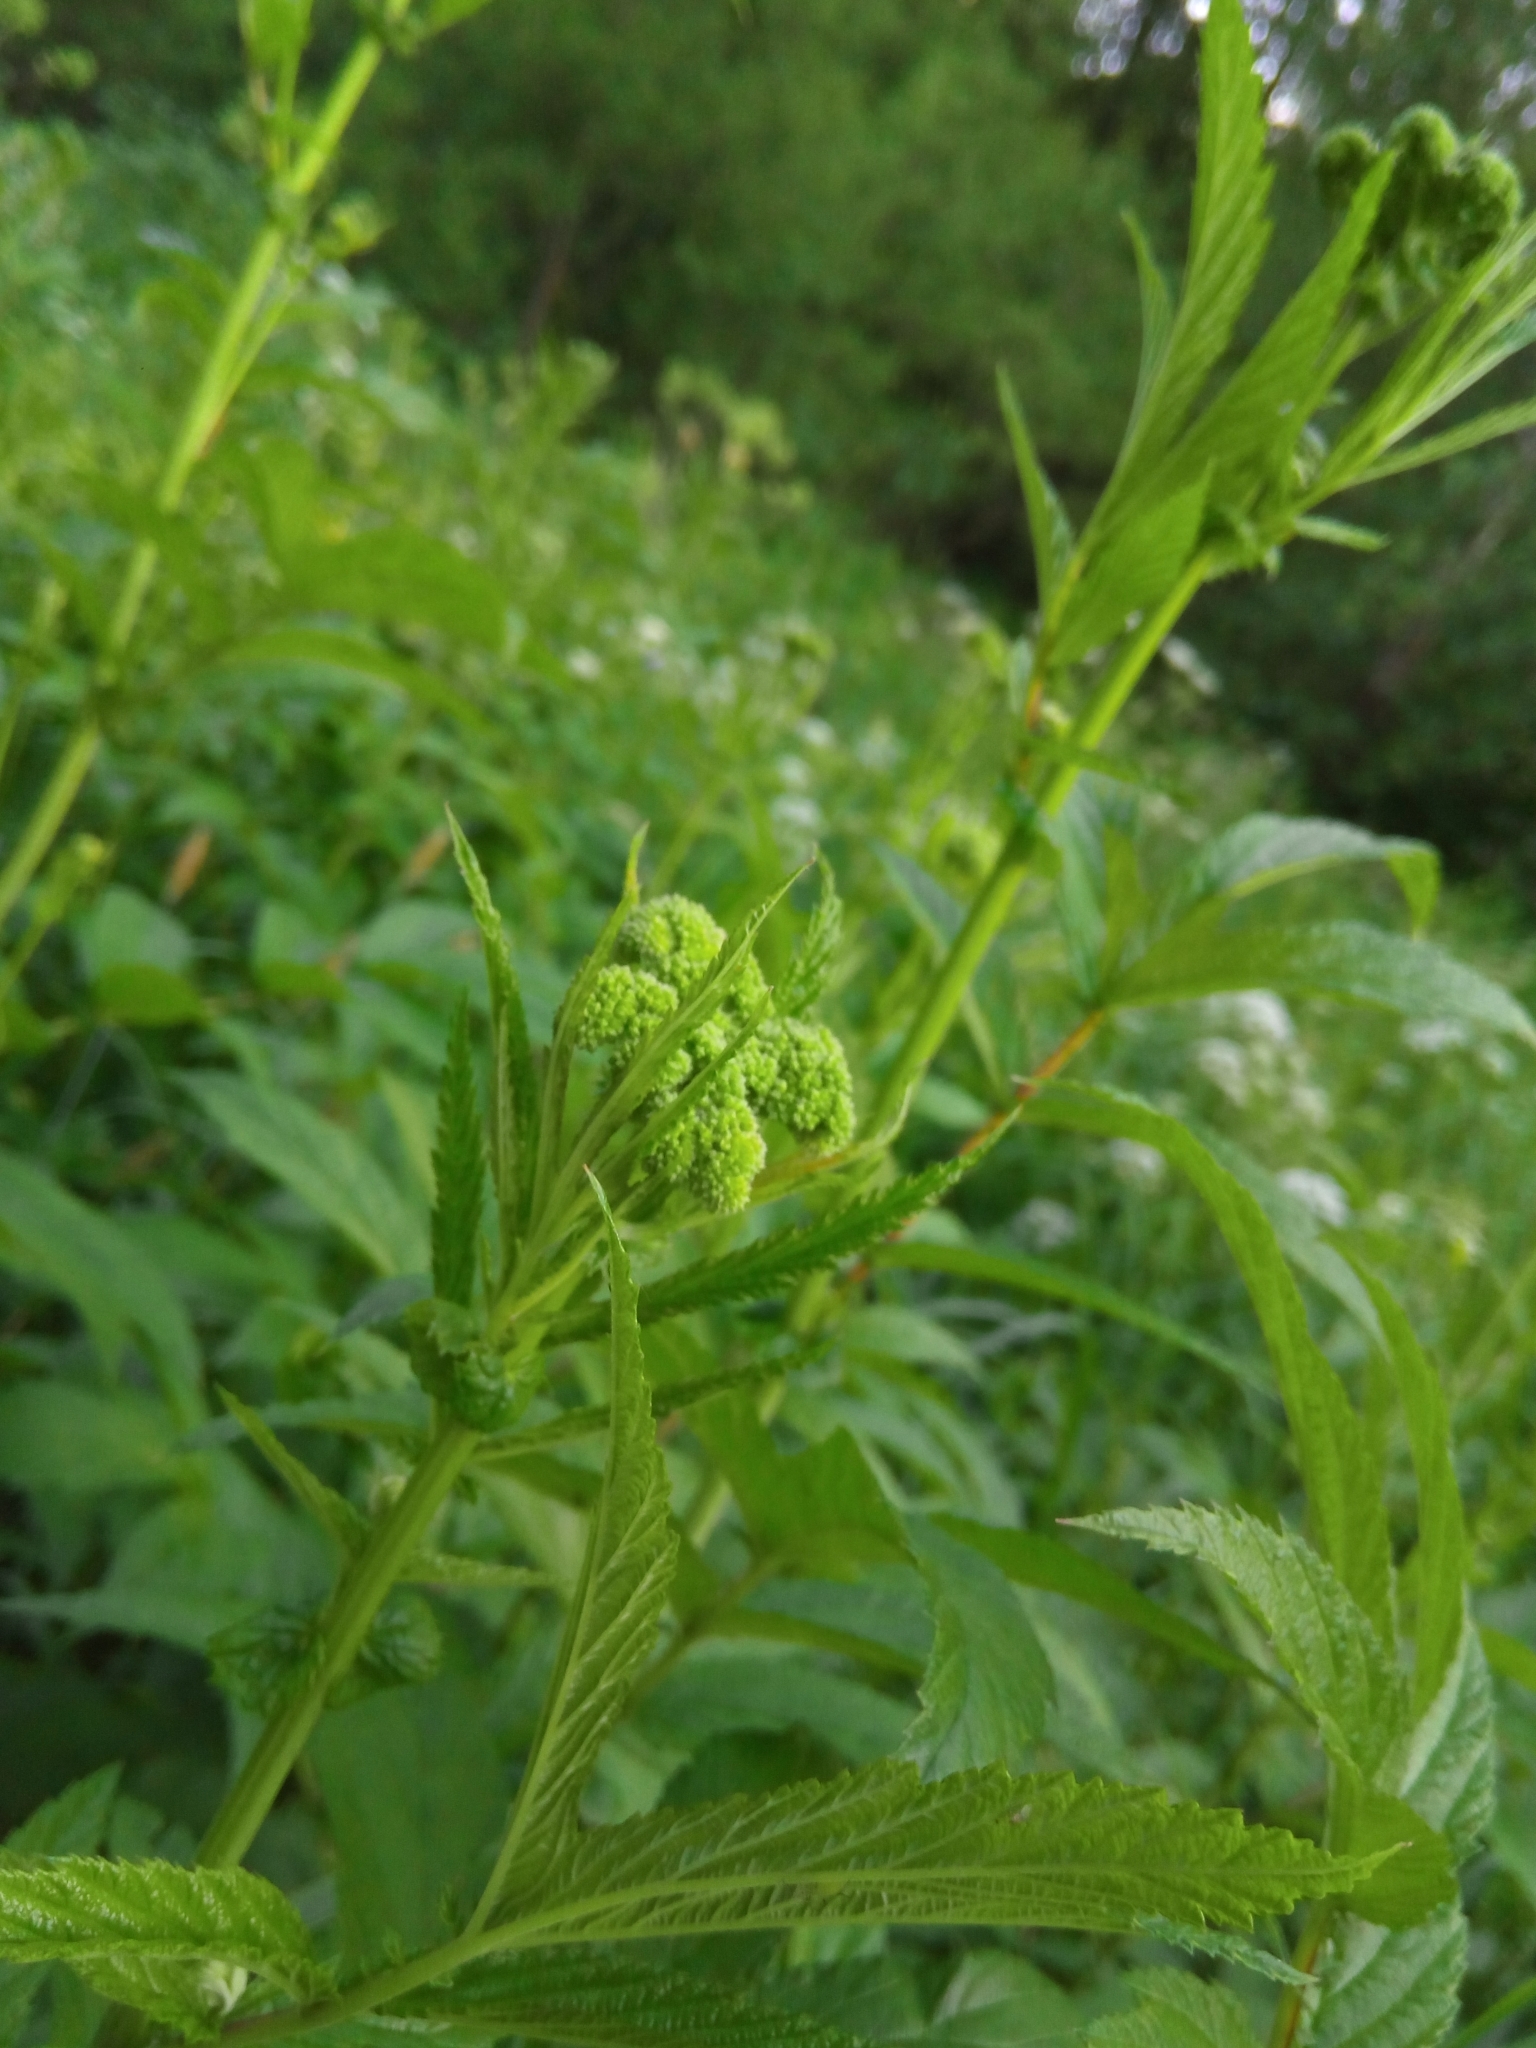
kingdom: Plantae
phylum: Tracheophyta
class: Magnoliopsida
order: Rosales
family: Rosaceae
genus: Filipendula
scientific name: Filipendula ulmaria
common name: Meadowsweet
